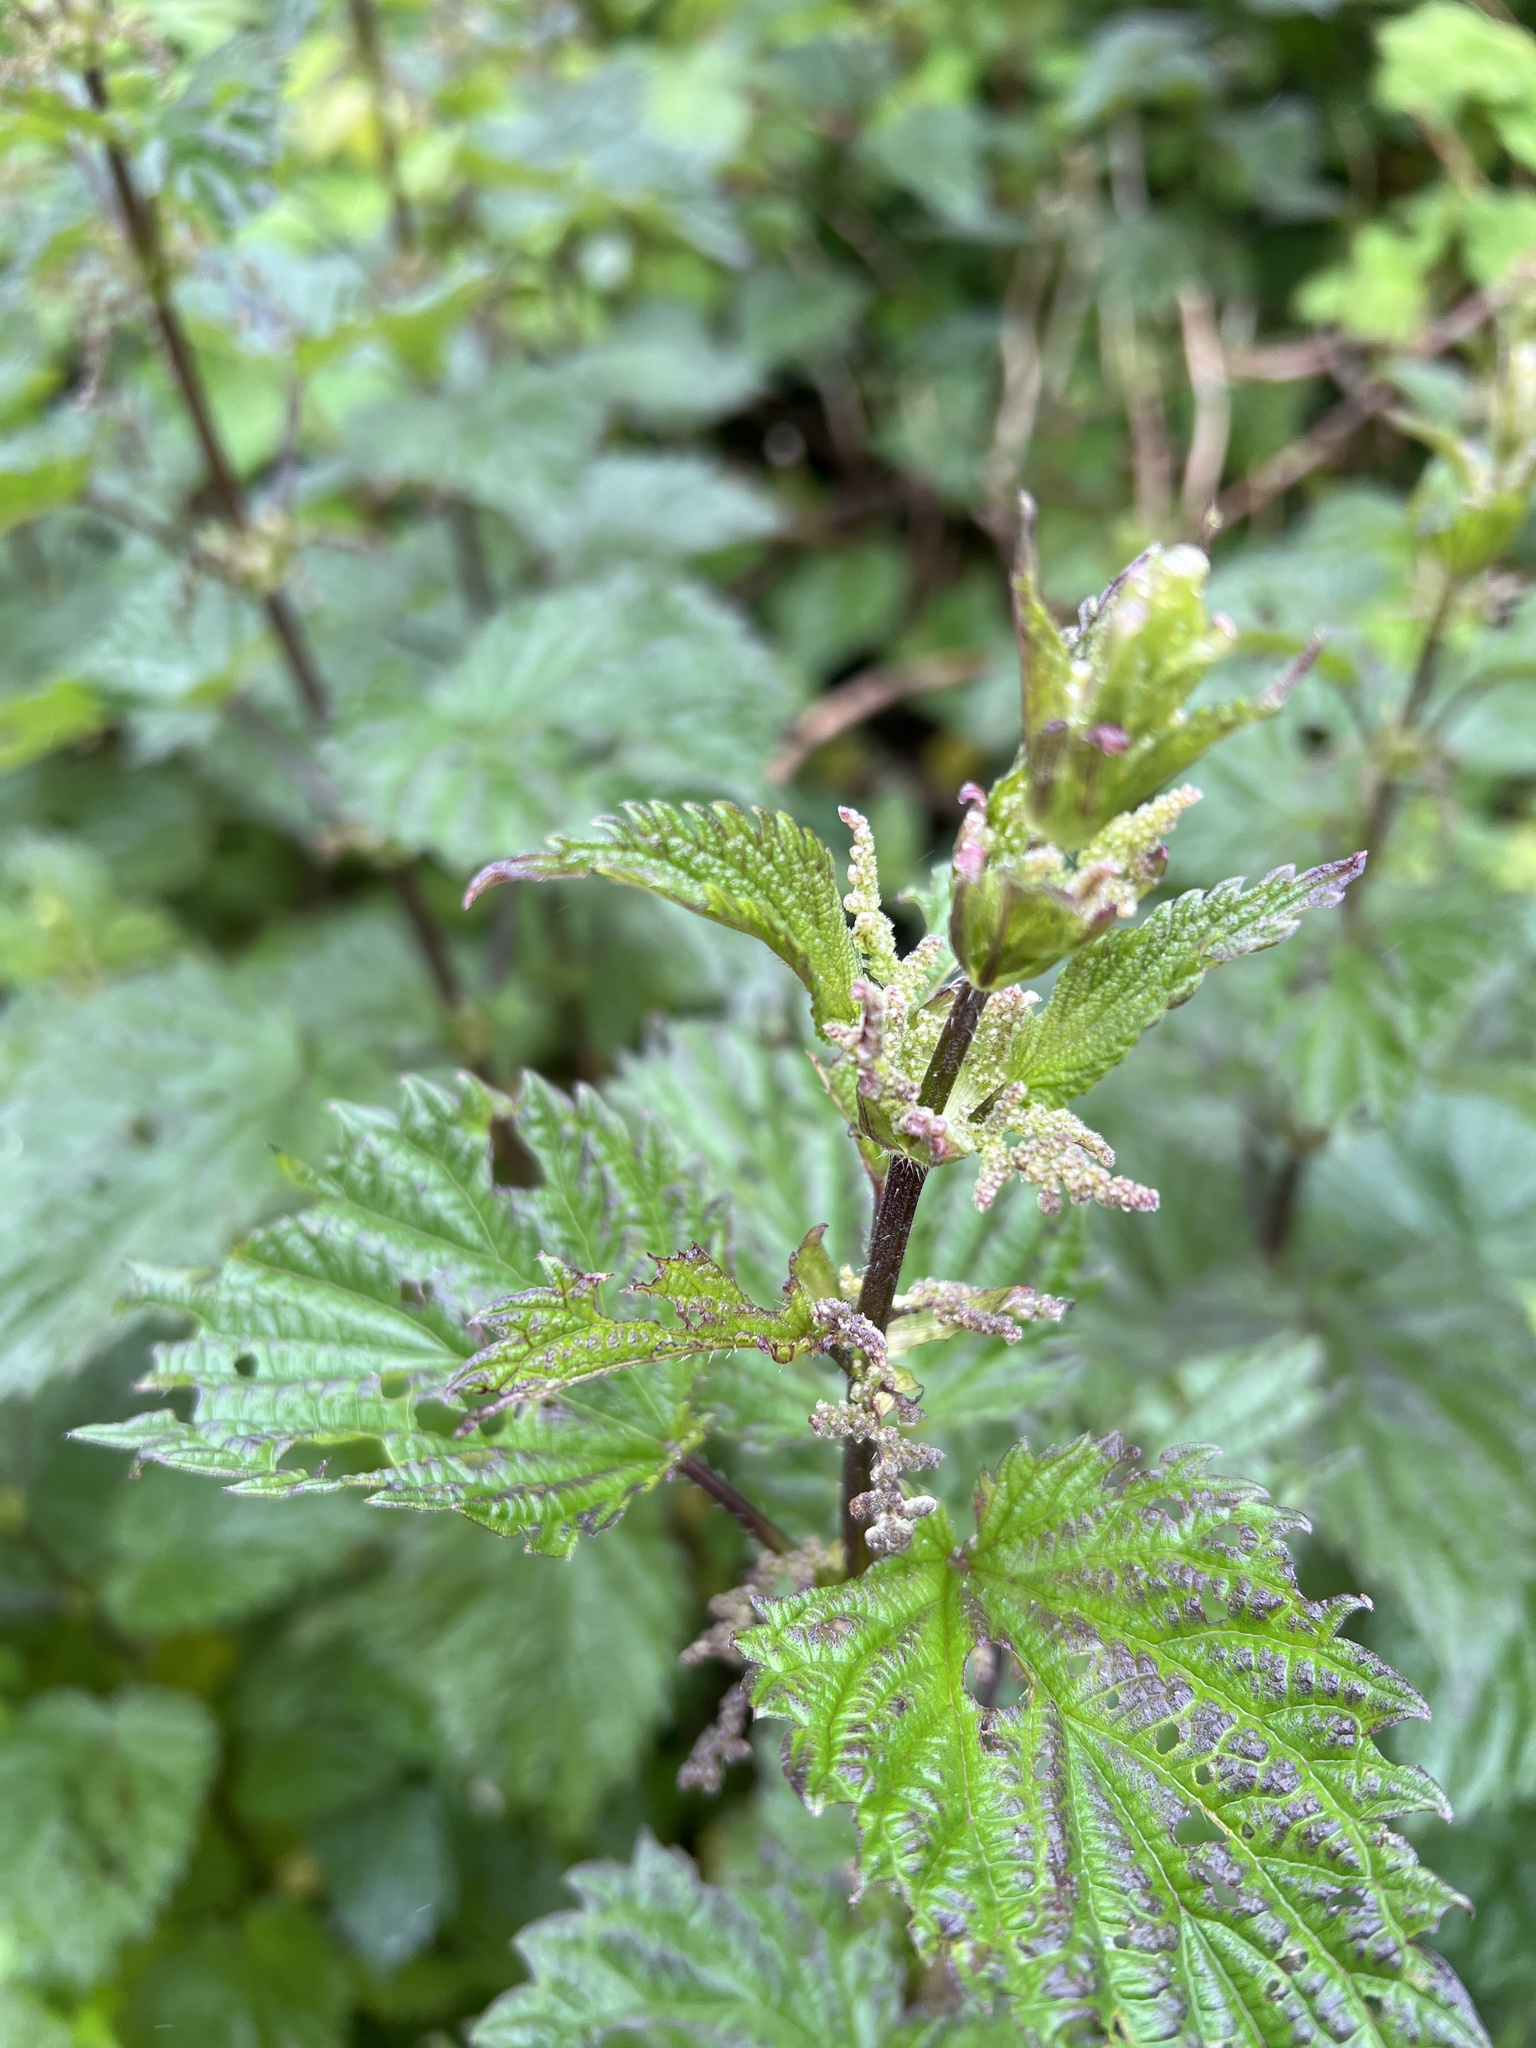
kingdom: Plantae
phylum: Tracheophyta
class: Magnoliopsida
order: Rosales
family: Urticaceae
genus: Urtica
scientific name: Urtica dioica
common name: Common nettle
